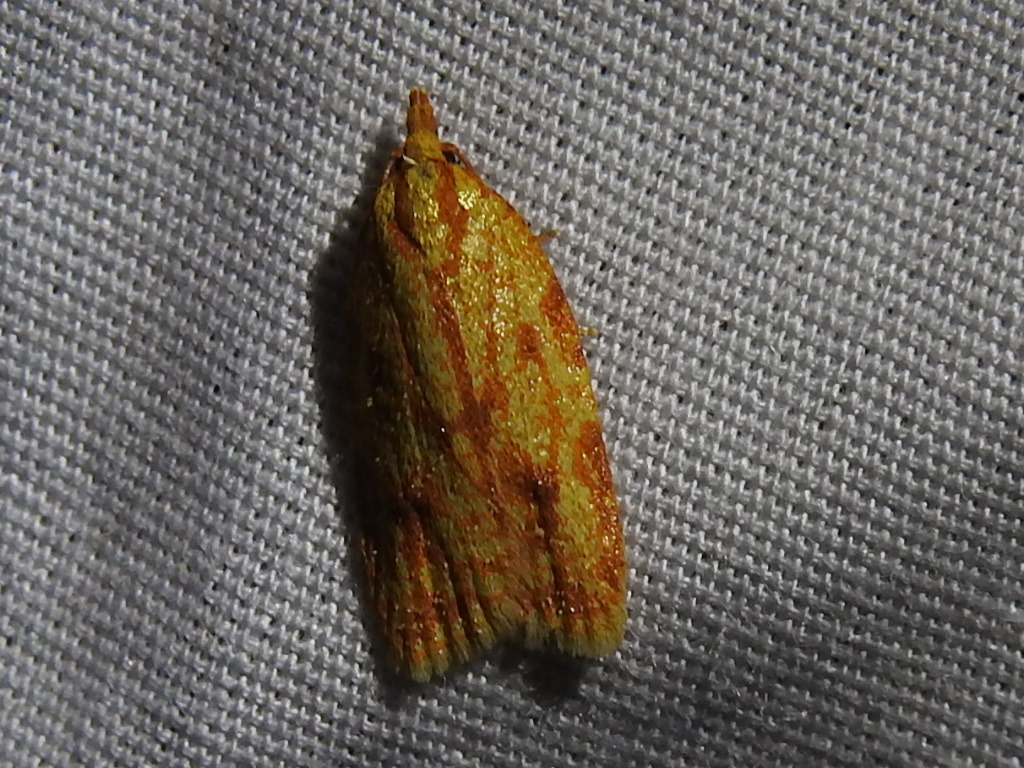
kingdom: Animalia
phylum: Arthropoda
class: Insecta
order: Lepidoptera
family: Tortricidae
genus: Sparganothis
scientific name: Sparganothis sulfureana
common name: Sparganothis fruitworm moth
